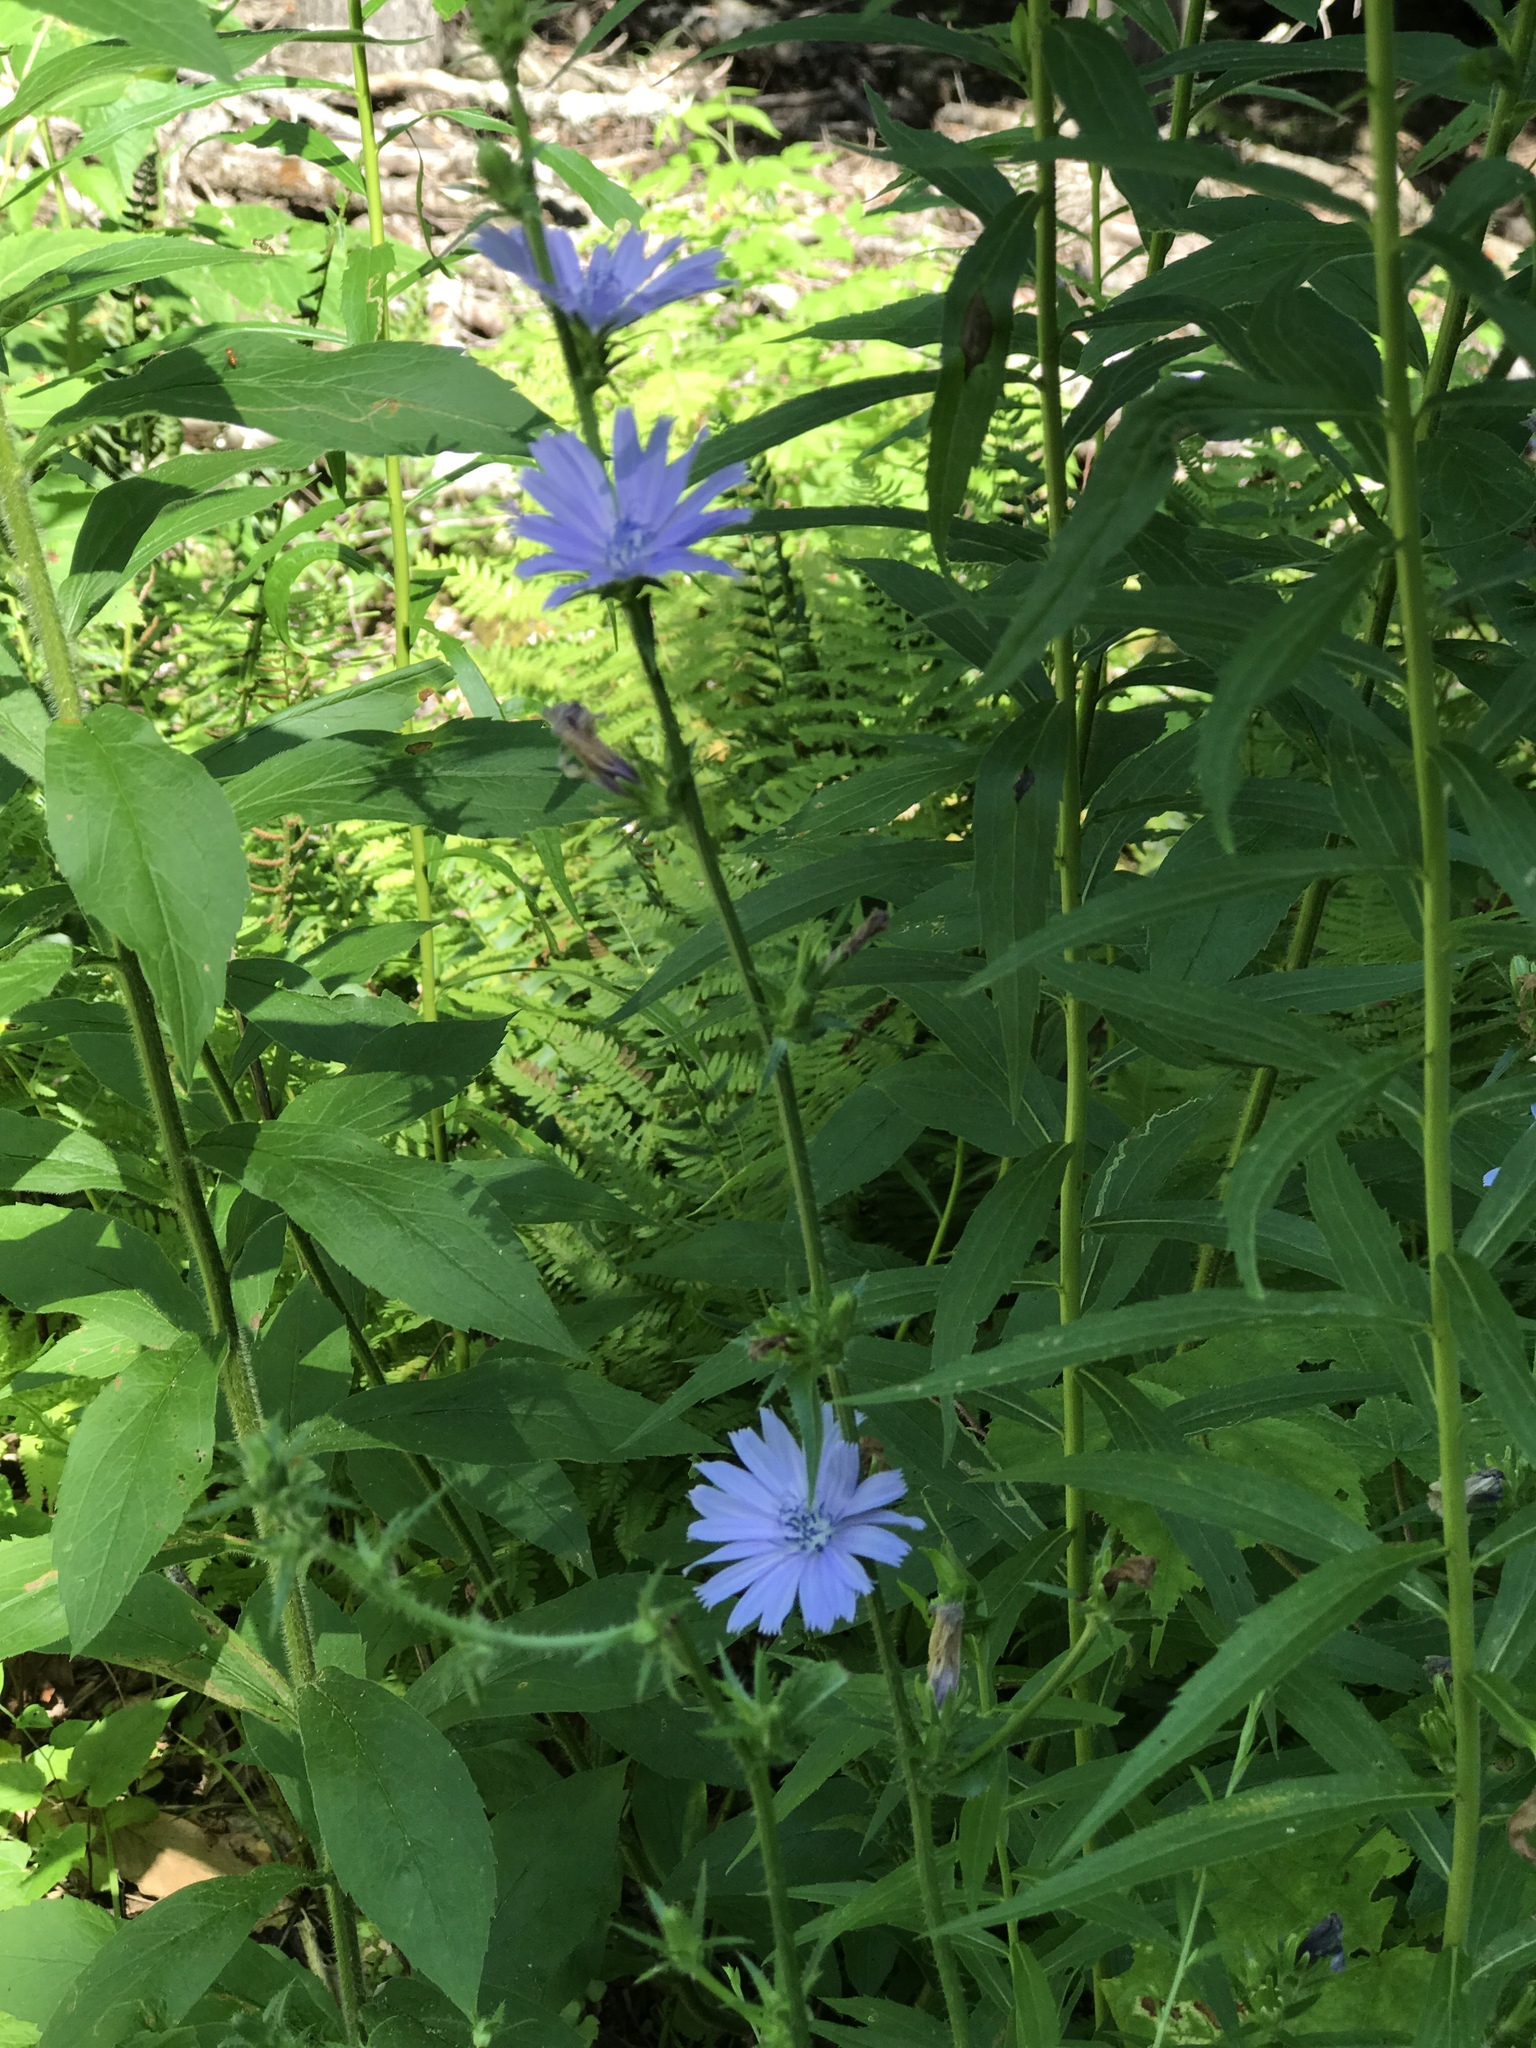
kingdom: Plantae
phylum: Tracheophyta
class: Magnoliopsida
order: Asterales
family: Asteraceae
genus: Cichorium
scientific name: Cichorium intybus
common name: Chicory
